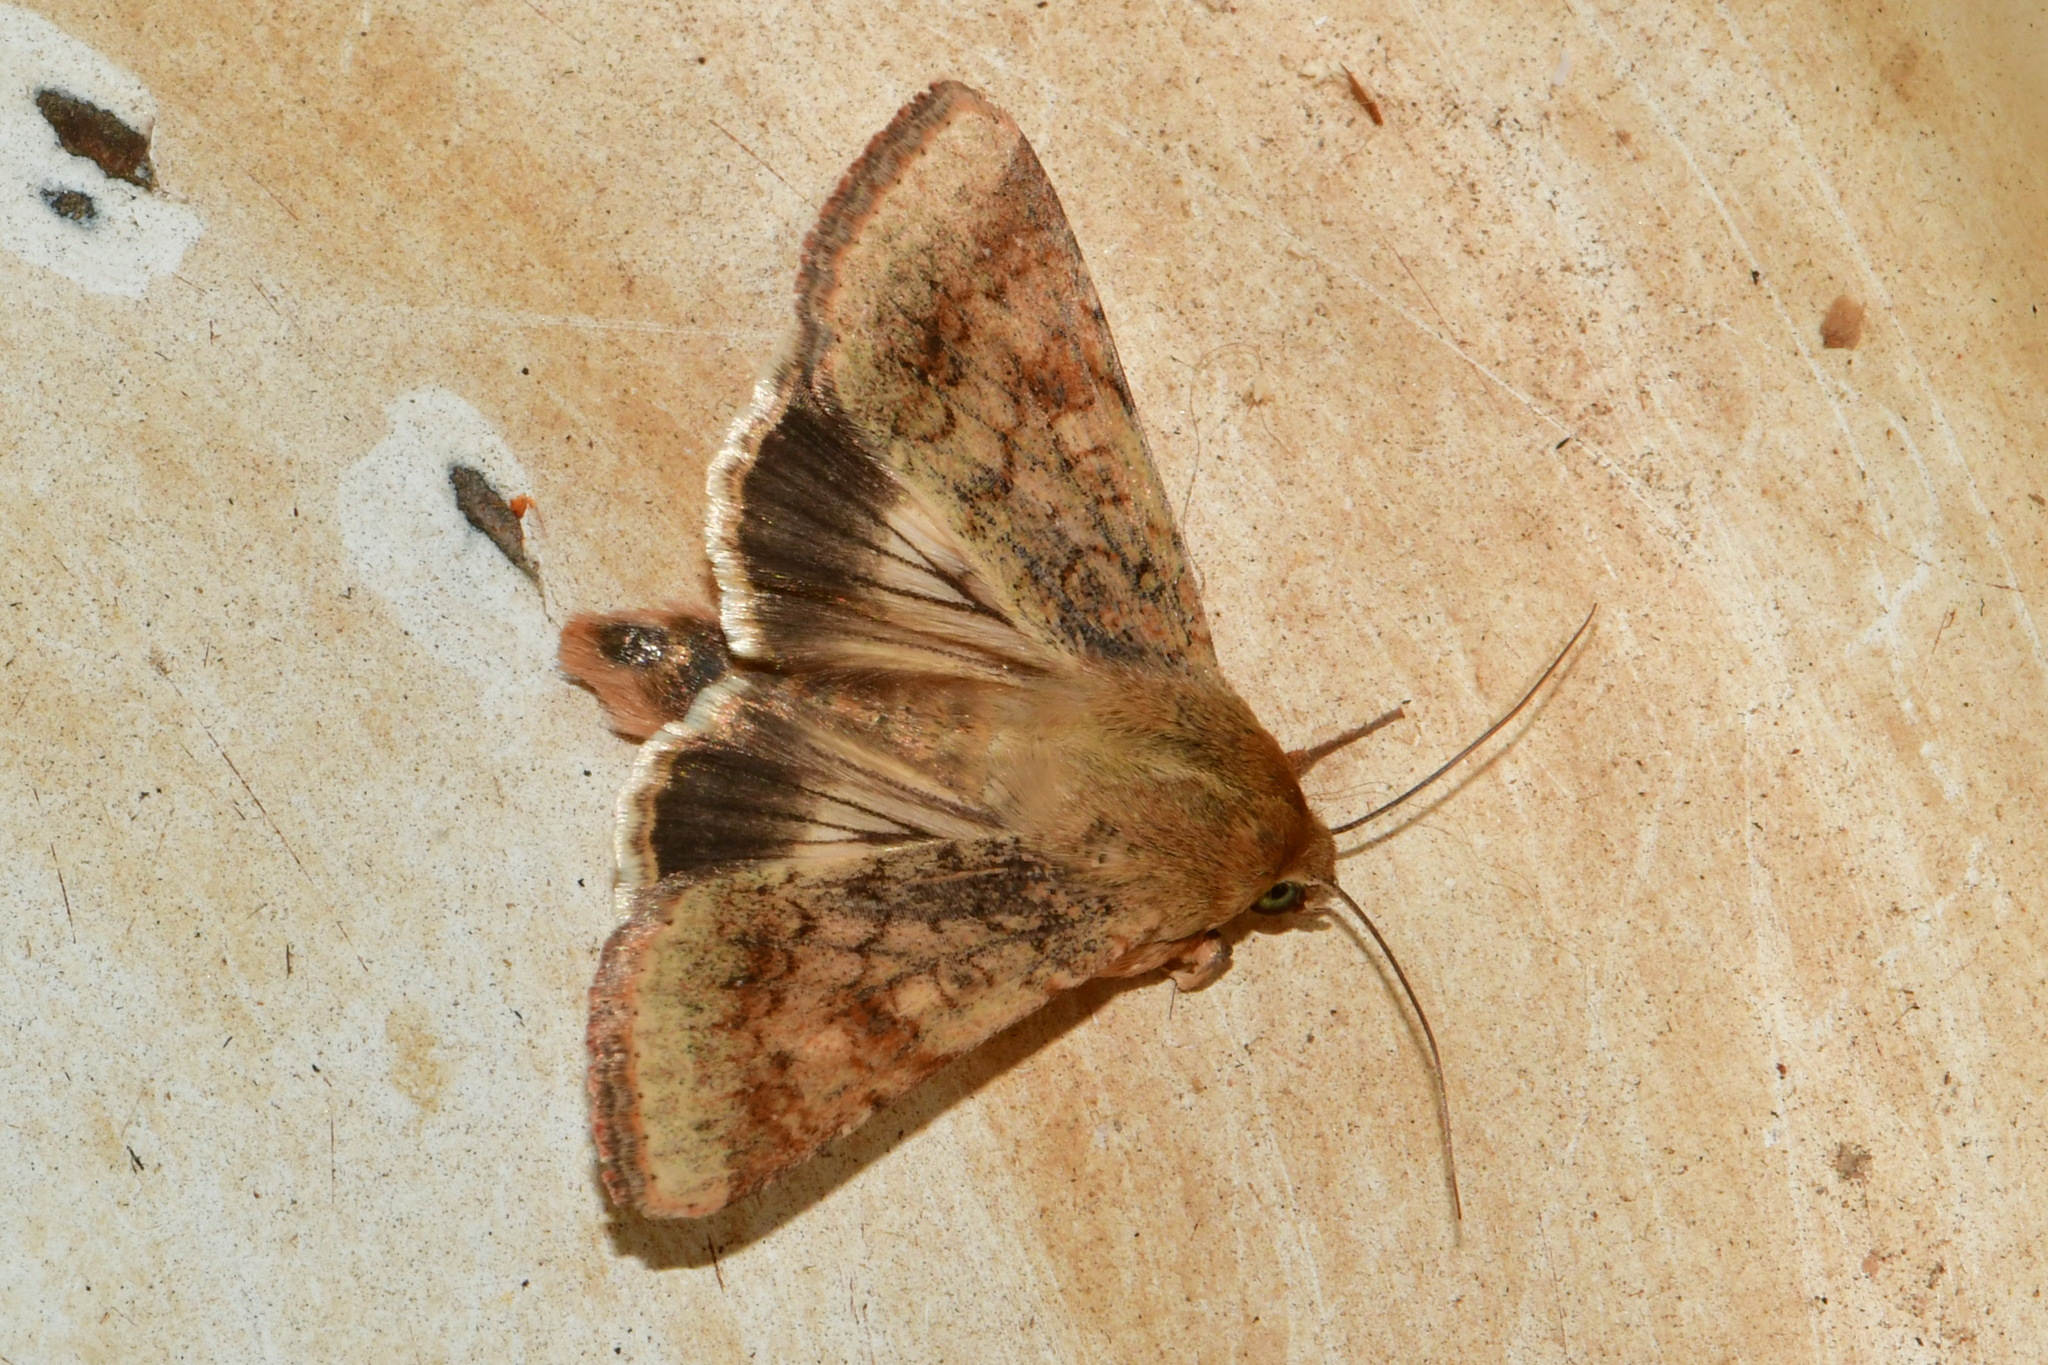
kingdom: Animalia
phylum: Arthropoda
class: Insecta
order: Lepidoptera
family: Noctuidae
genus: Helicoverpa
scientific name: Helicoverpa armigera
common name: Cotton bollworm
